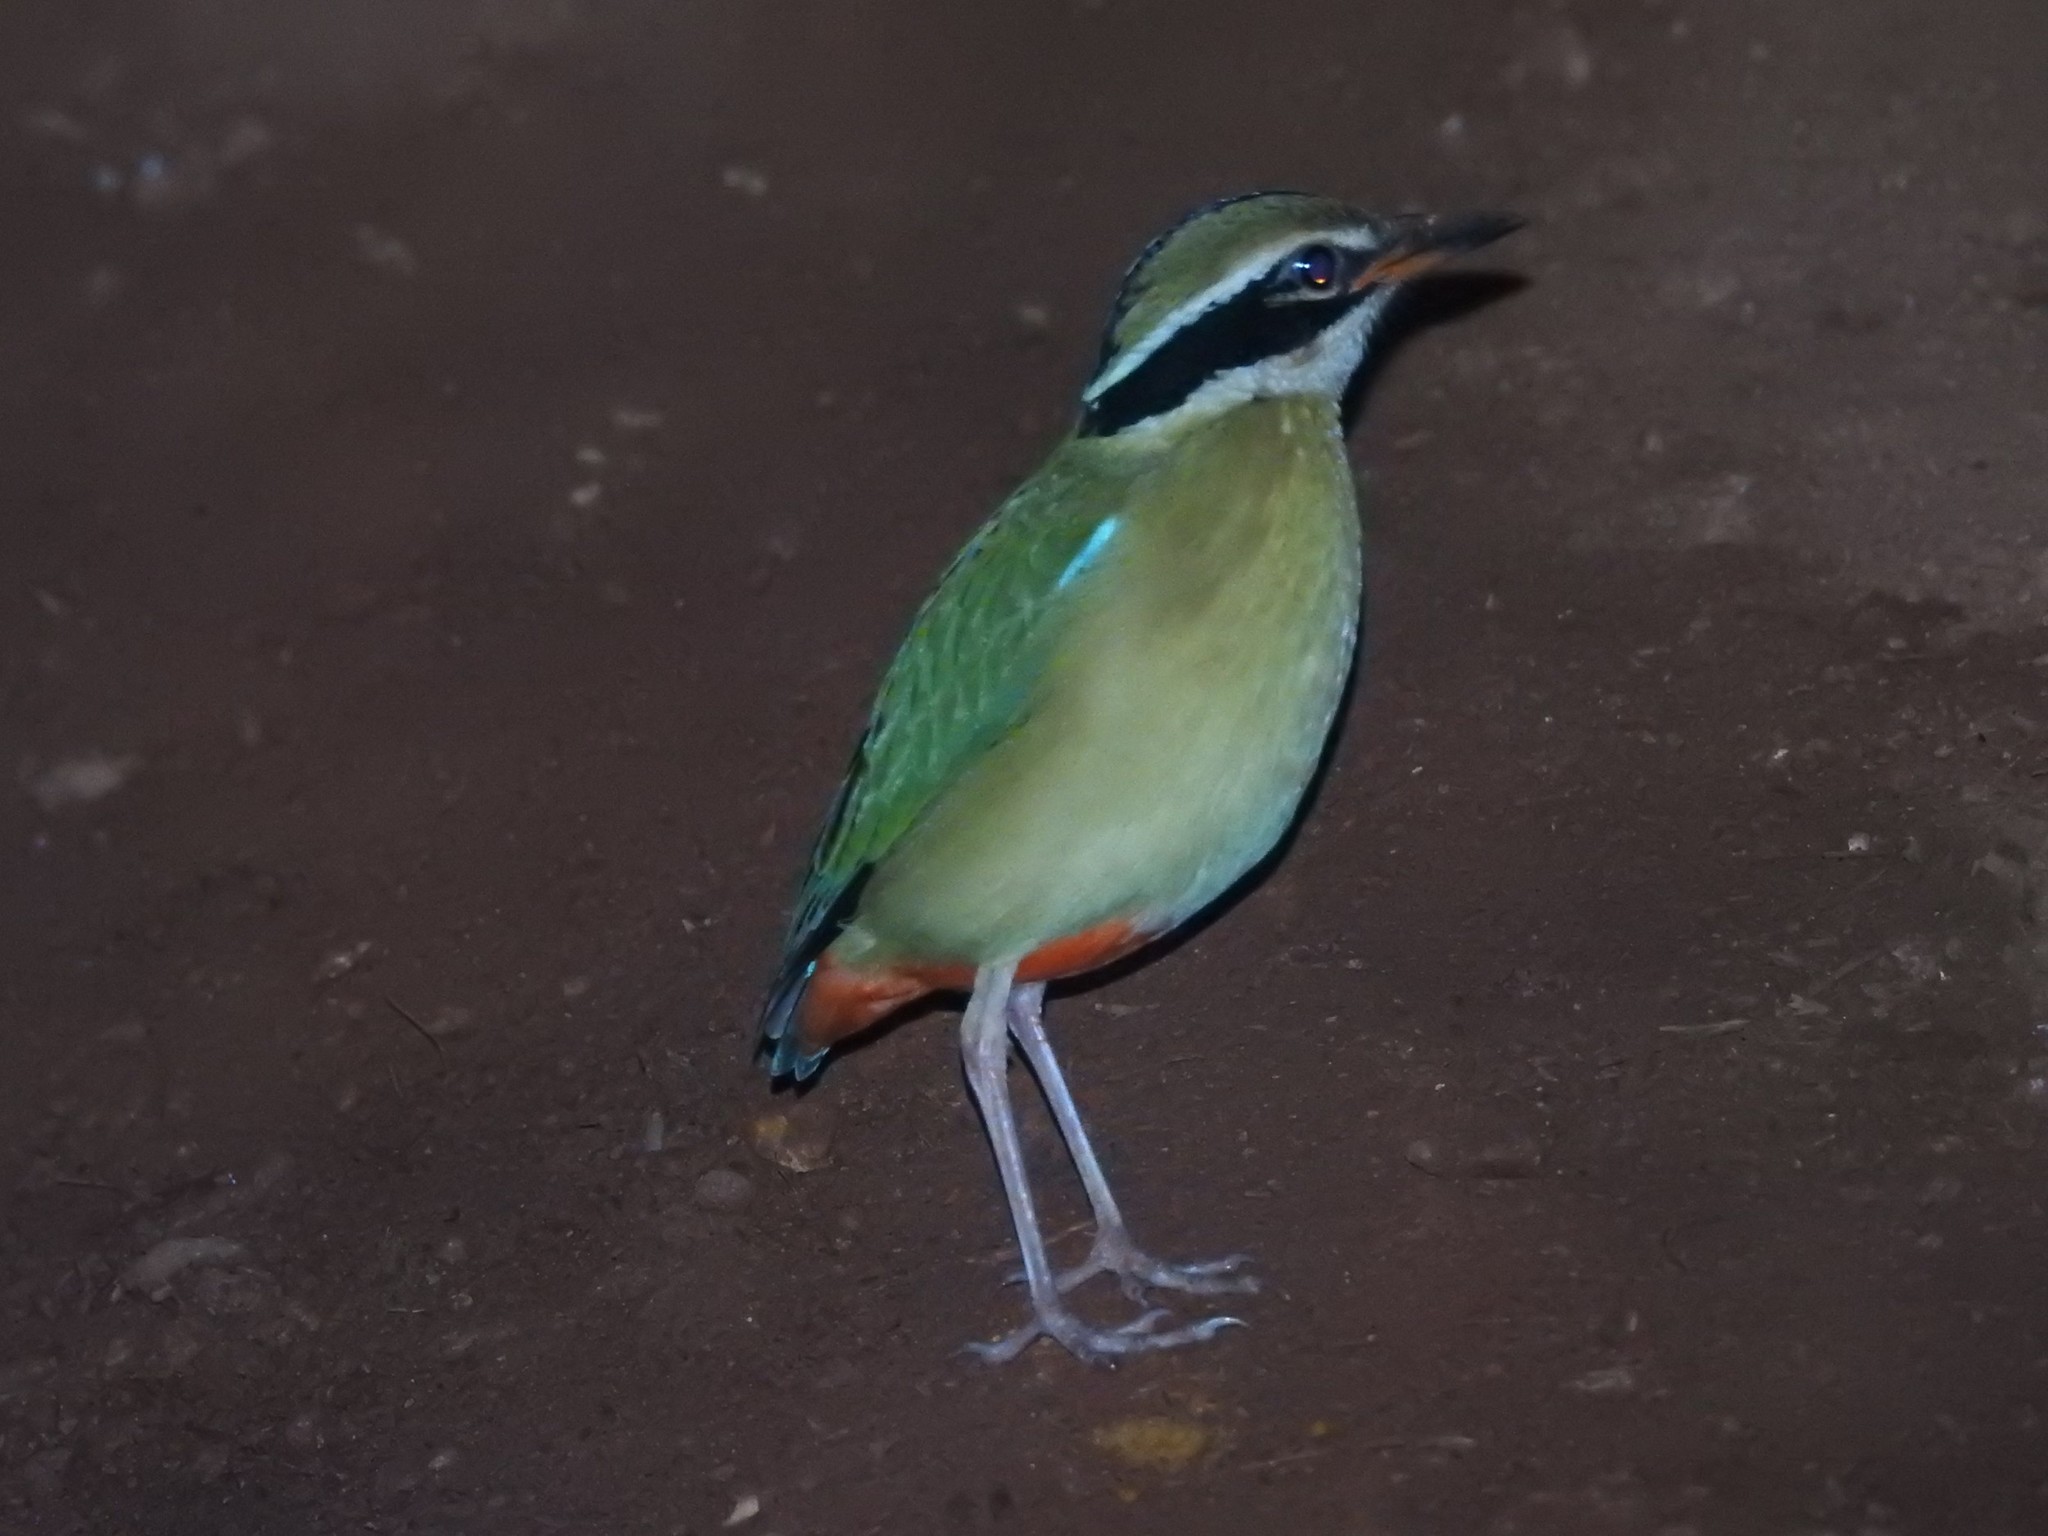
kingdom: Animalia
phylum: Chordata
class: Aves
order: Passeriformes
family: Pittidae
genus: Pitta
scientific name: Pitta brachyura
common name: Indian pitta
